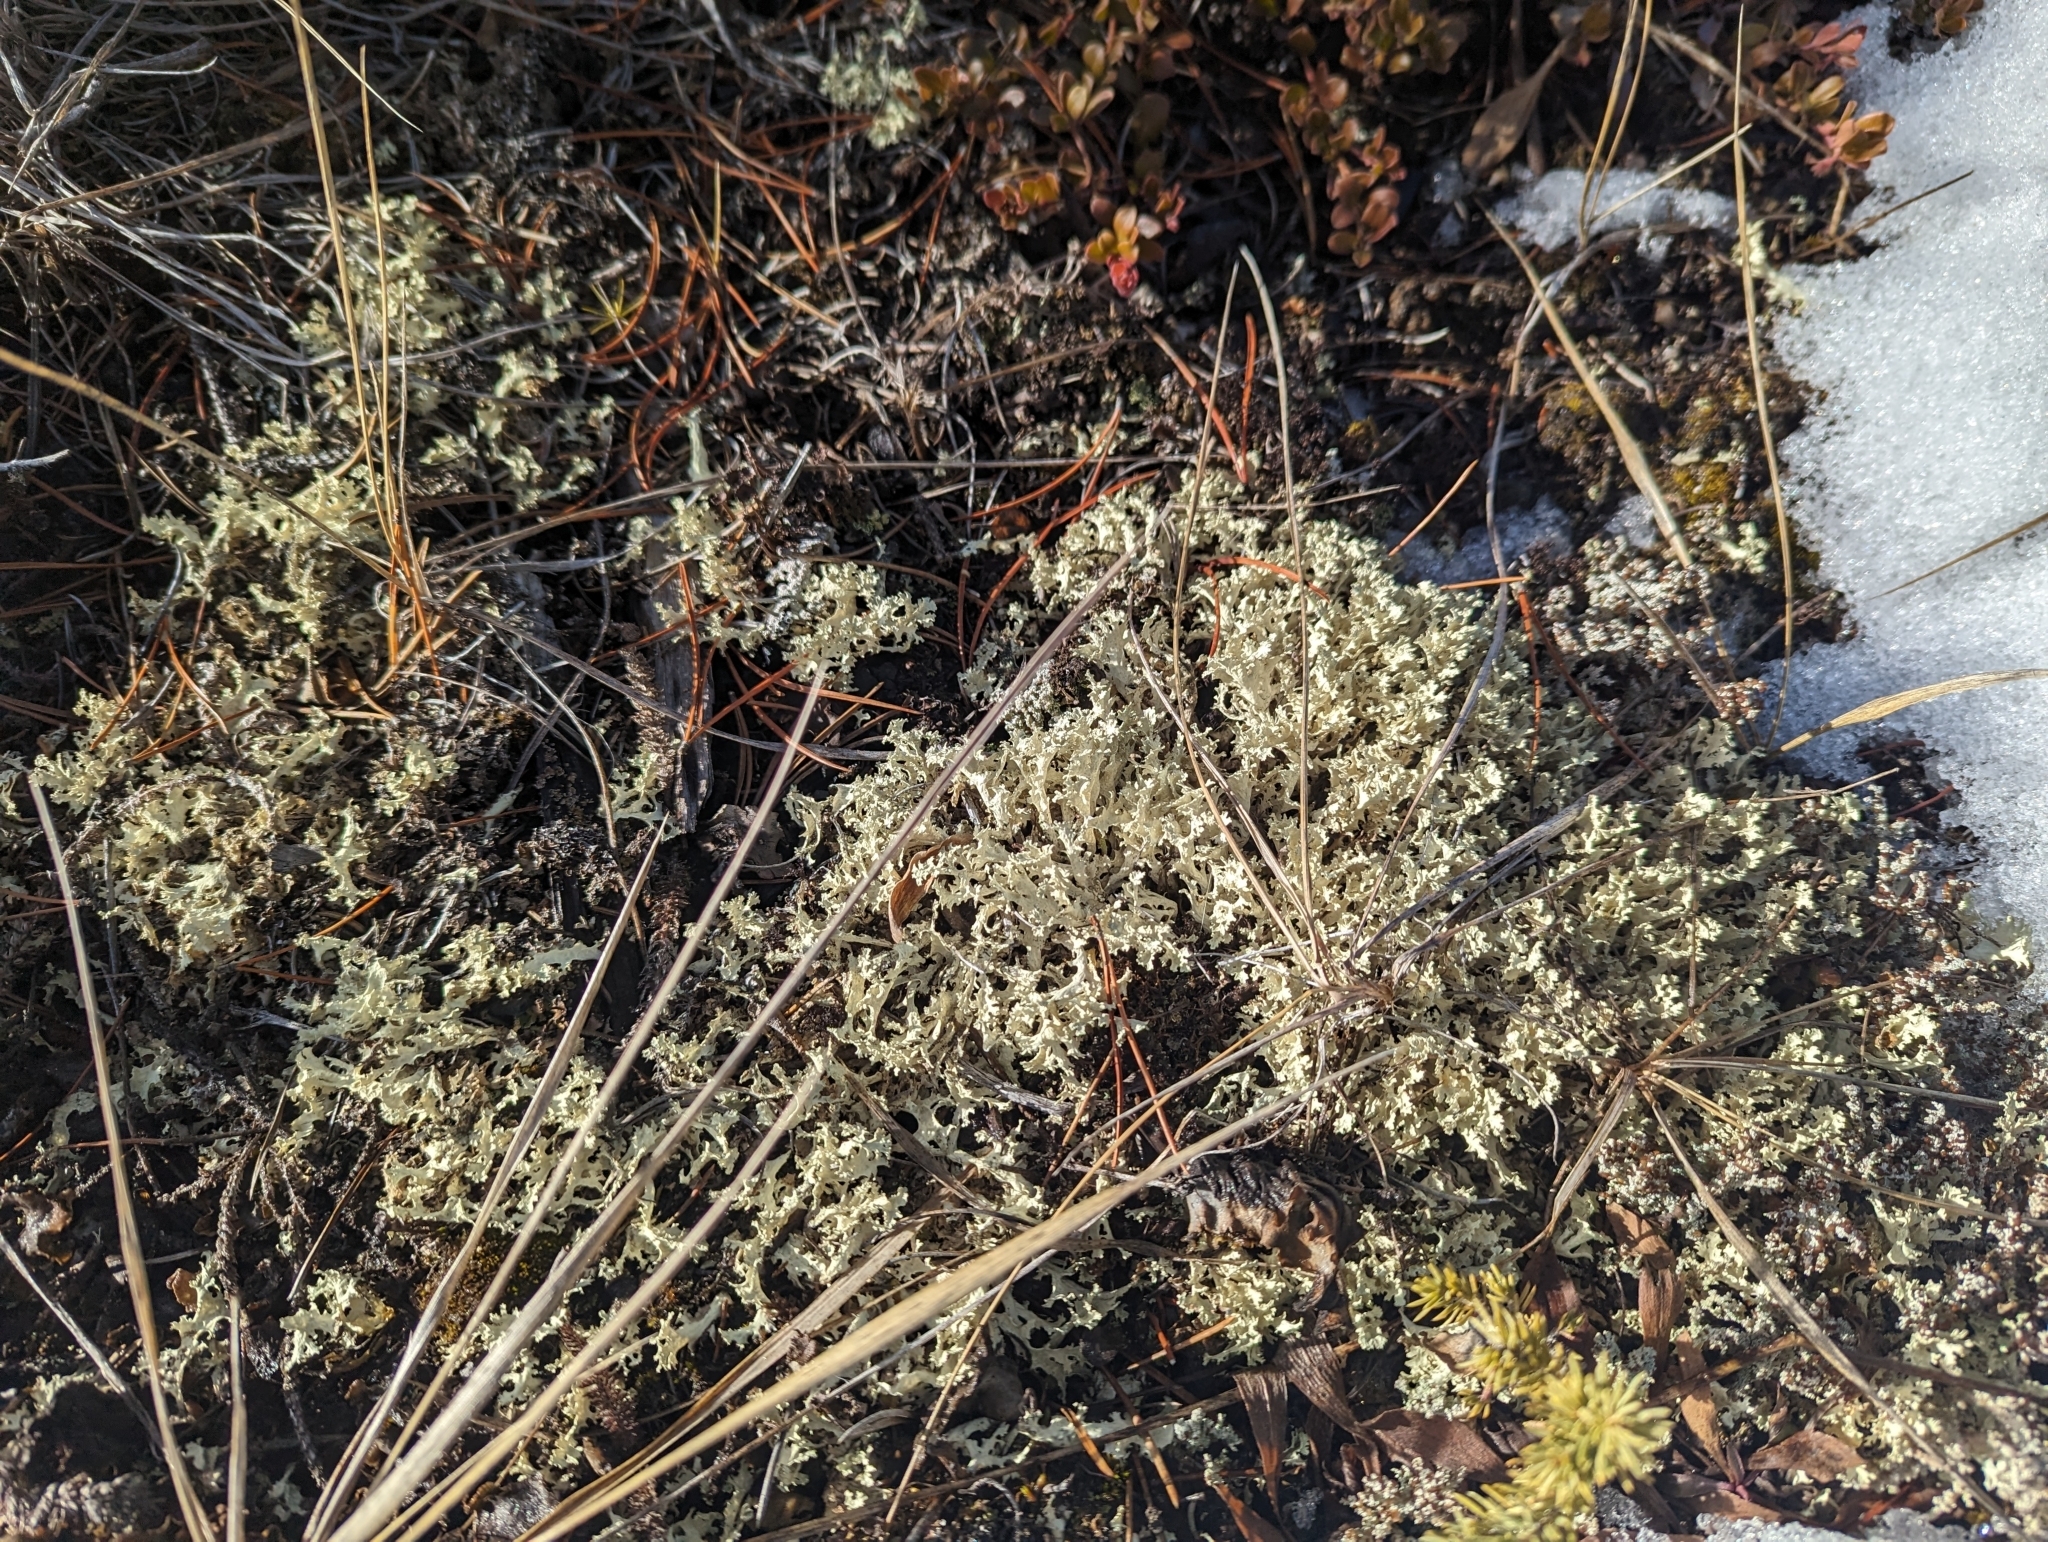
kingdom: Fungi
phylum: Ascomycota
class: Lecanoromycetes
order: Lecanorales
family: Parmeliaceae
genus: Nephromopsis
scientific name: Nephromopsis nivalis
